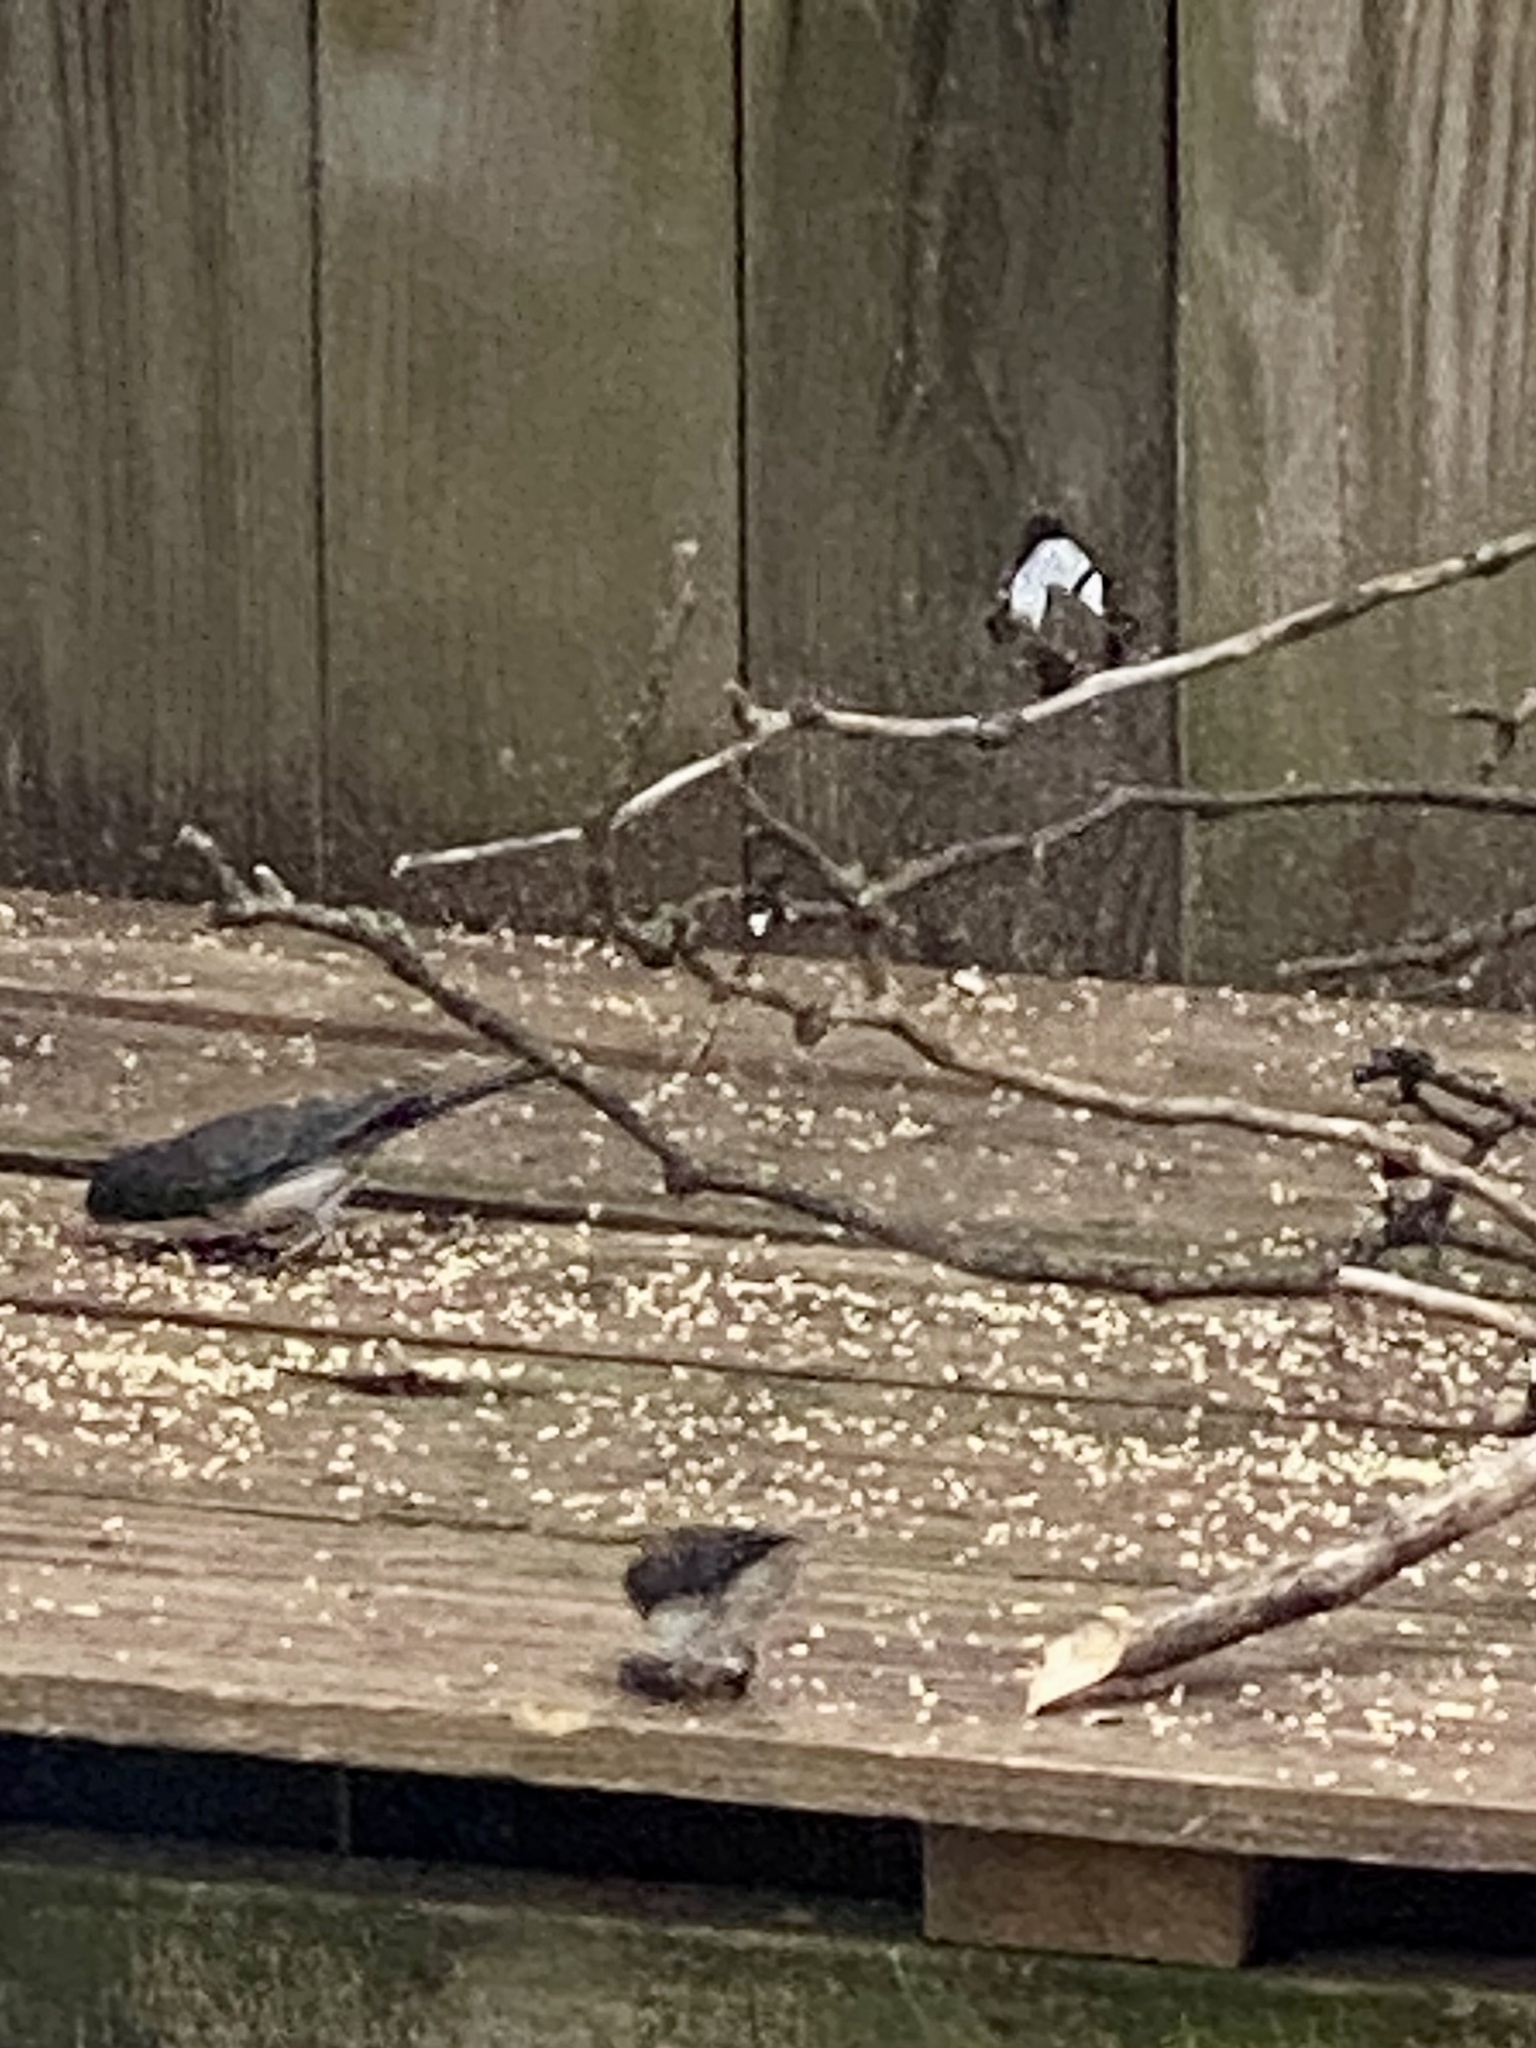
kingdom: Animalia
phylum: Chordata
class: Aves
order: Passeriformes
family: Passerellidae
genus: Junco
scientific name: Junco hyemalis
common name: Dark-eyed junco
